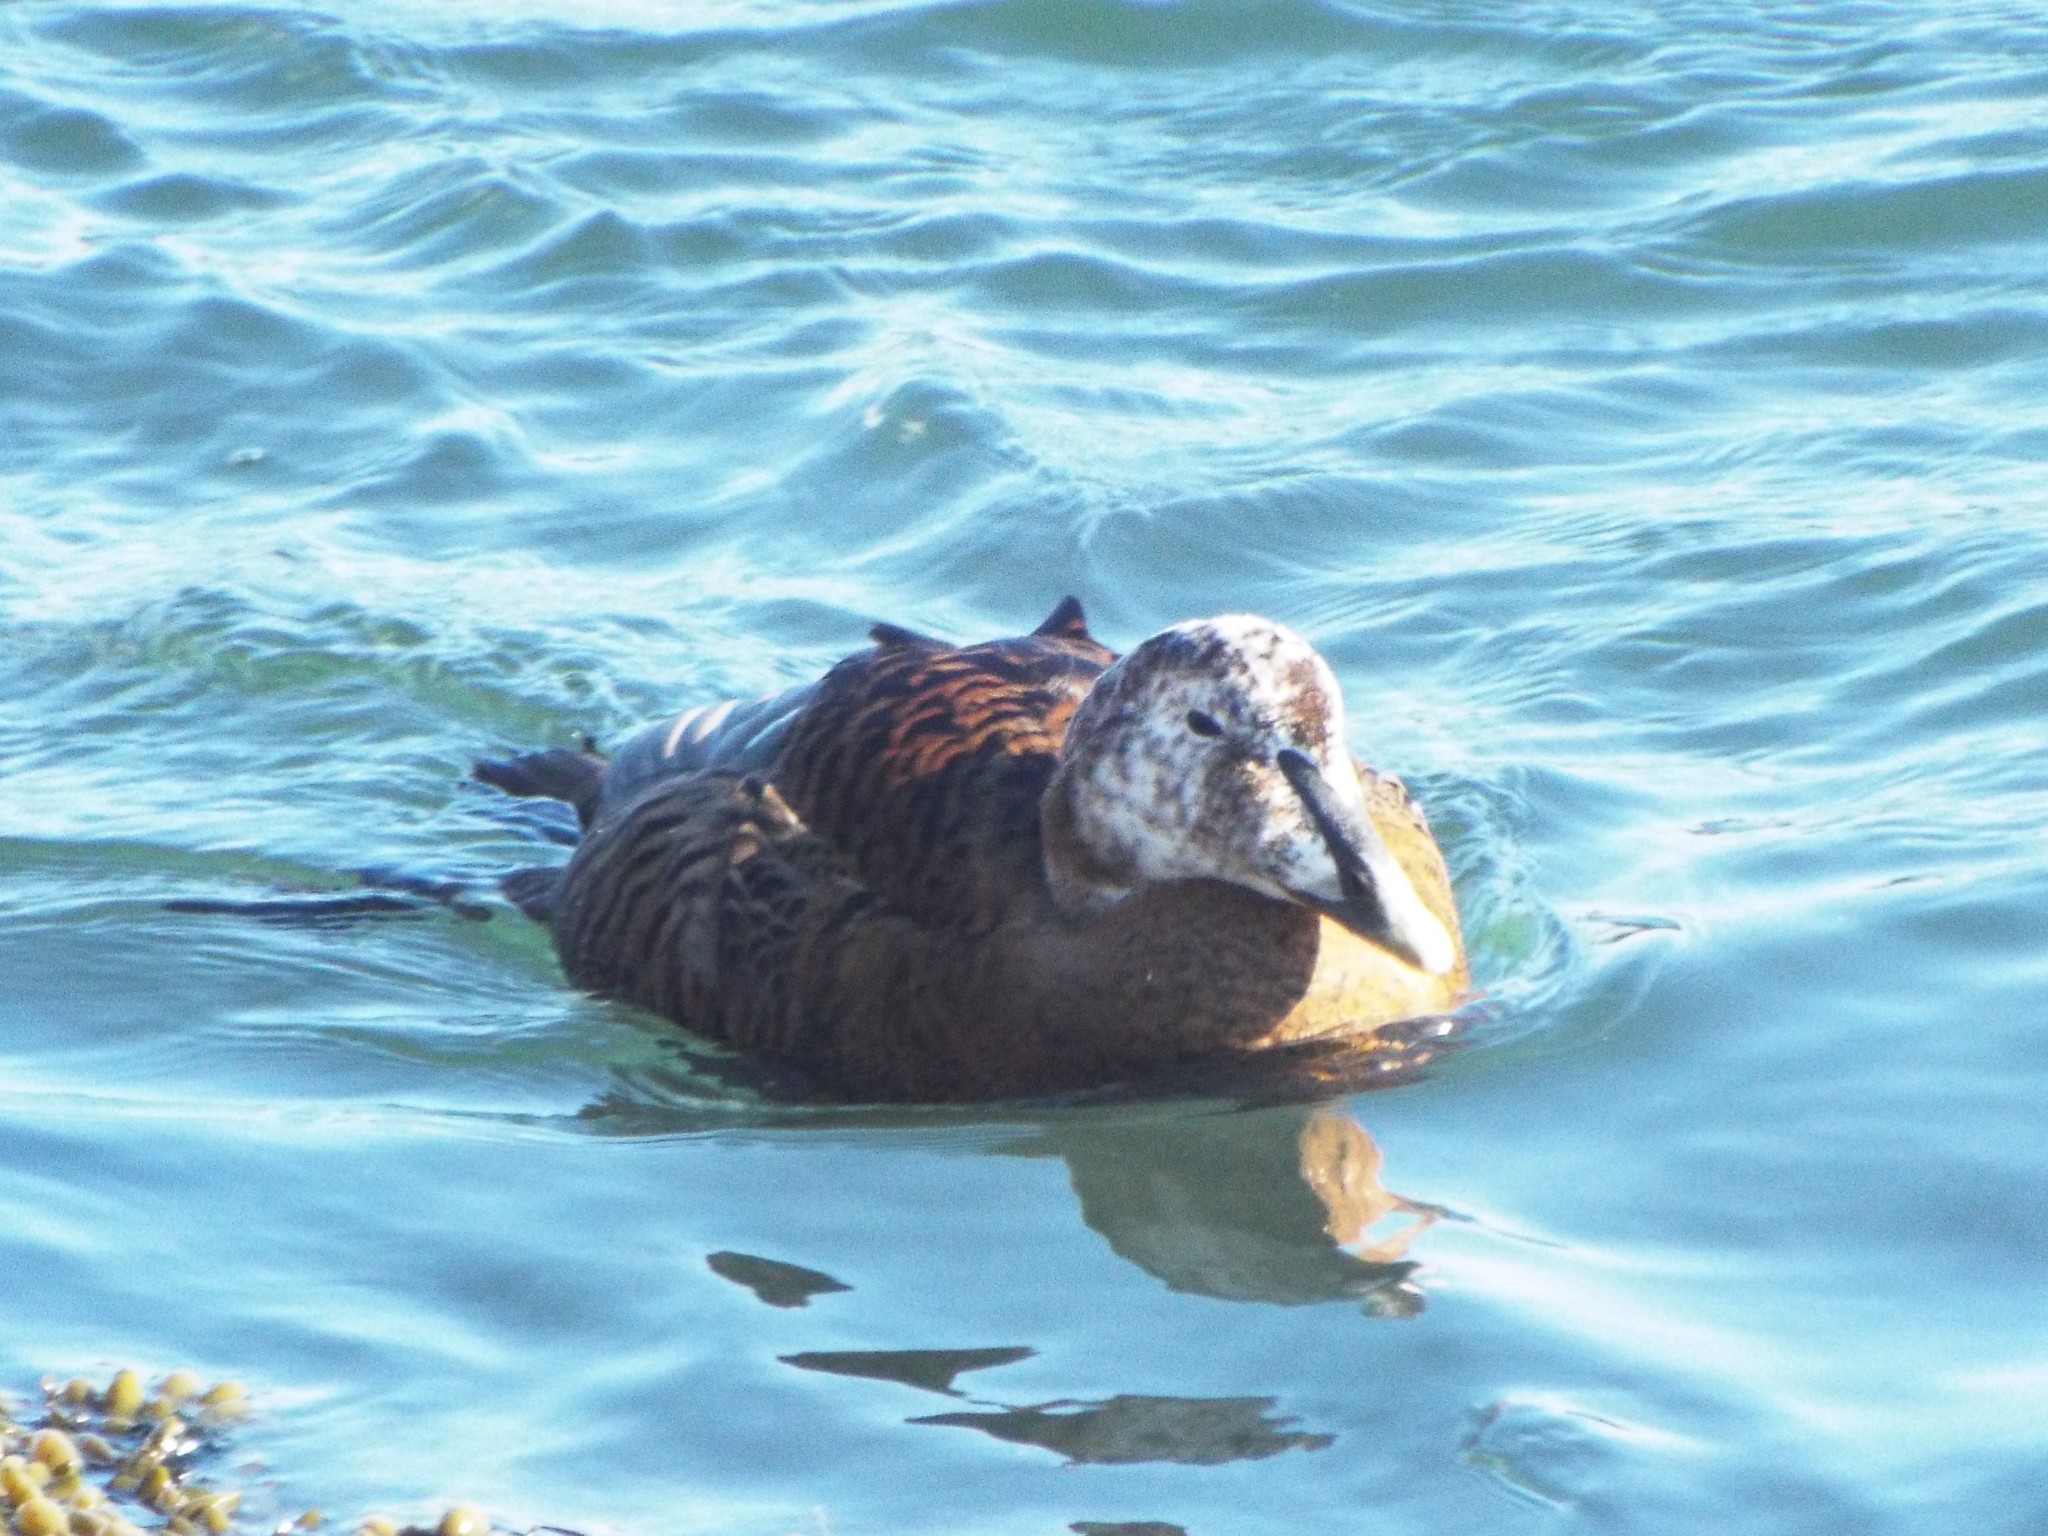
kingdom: Animalia
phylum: Chordata
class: Aves
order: Anseriformes
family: Anatidae
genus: Somateria
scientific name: Somateria mollissima
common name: Common eider
